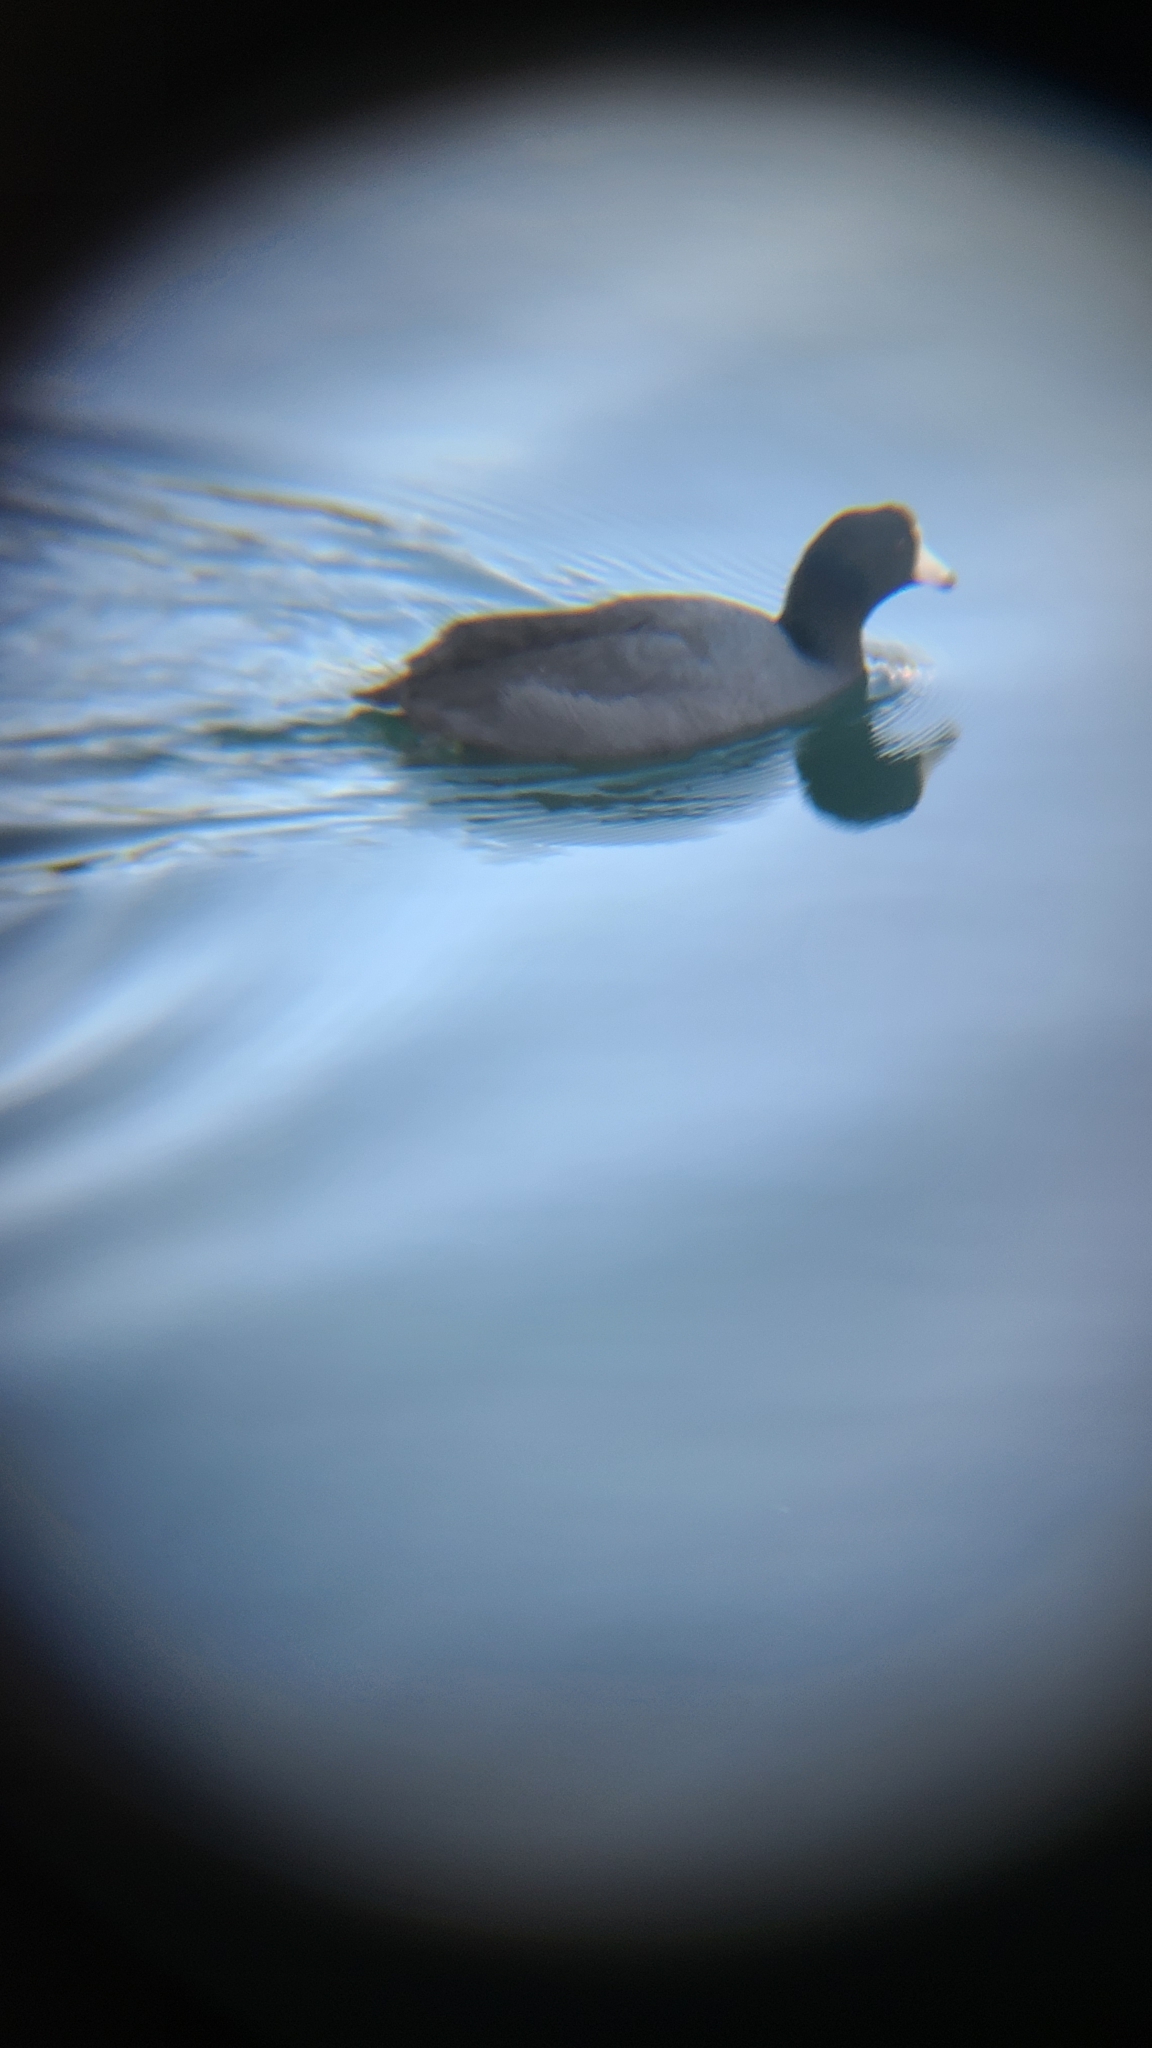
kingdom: Animalia
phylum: Chordata
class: Aves
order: Gruiformes
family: Rallidae
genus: Fulica
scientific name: Fulica americana
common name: American coot
